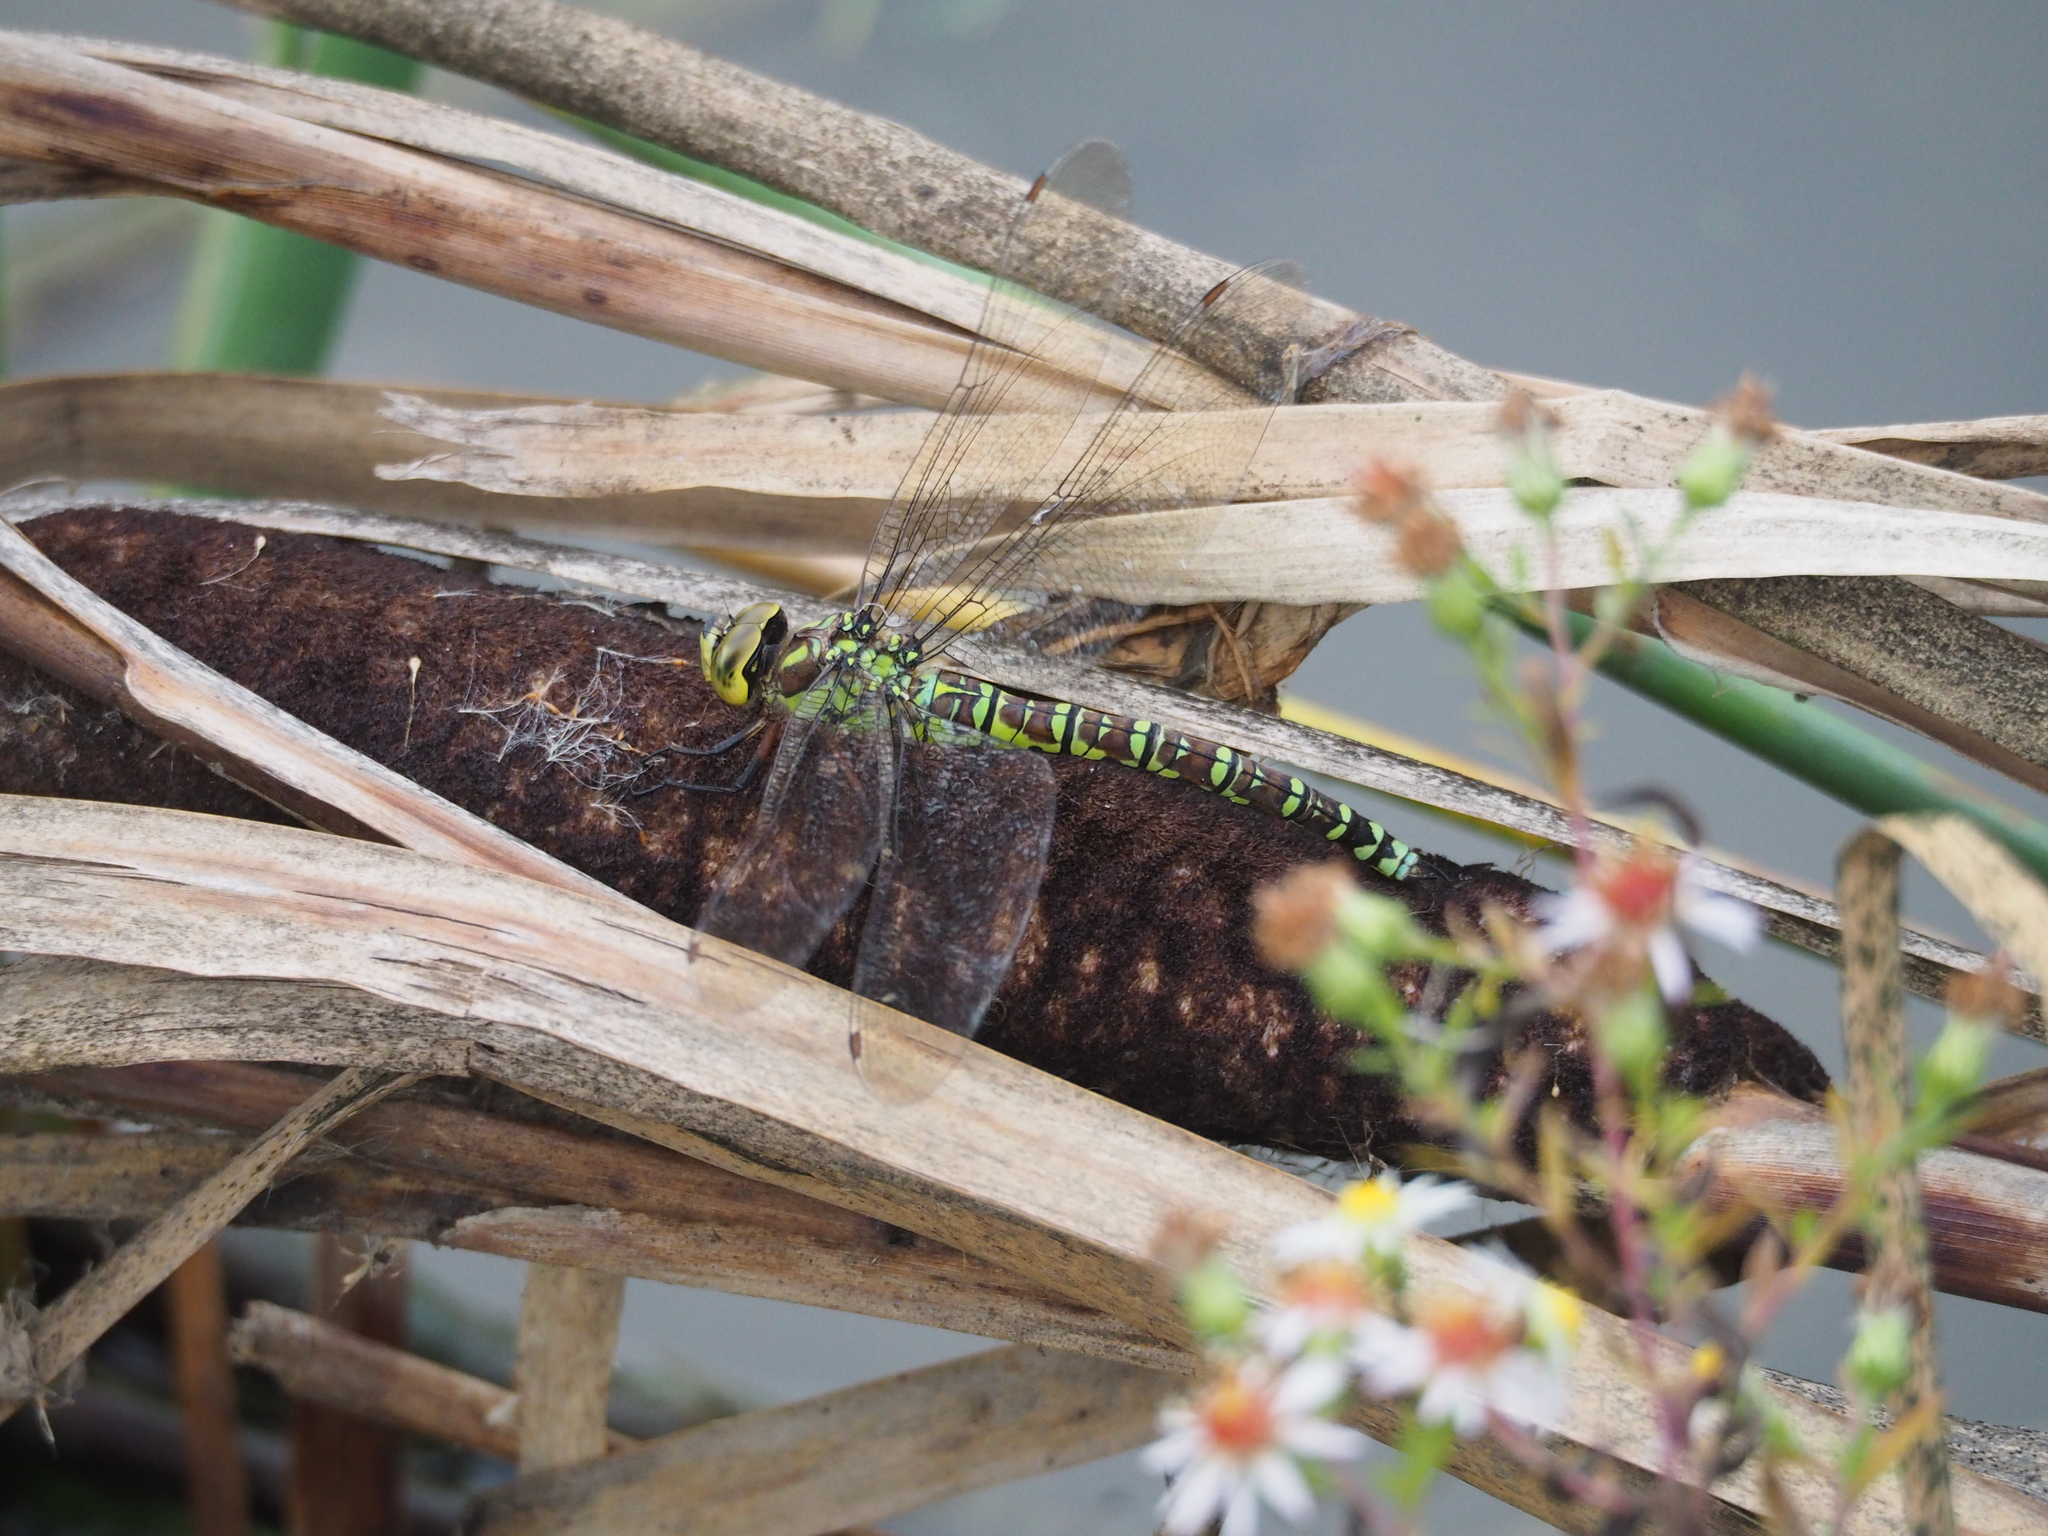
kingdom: Animalia
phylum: Arthropoda
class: Insecta
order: Odonata
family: Aeshnidae
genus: Aeshna
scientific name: Aeshna cyanea
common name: Southern hawker
